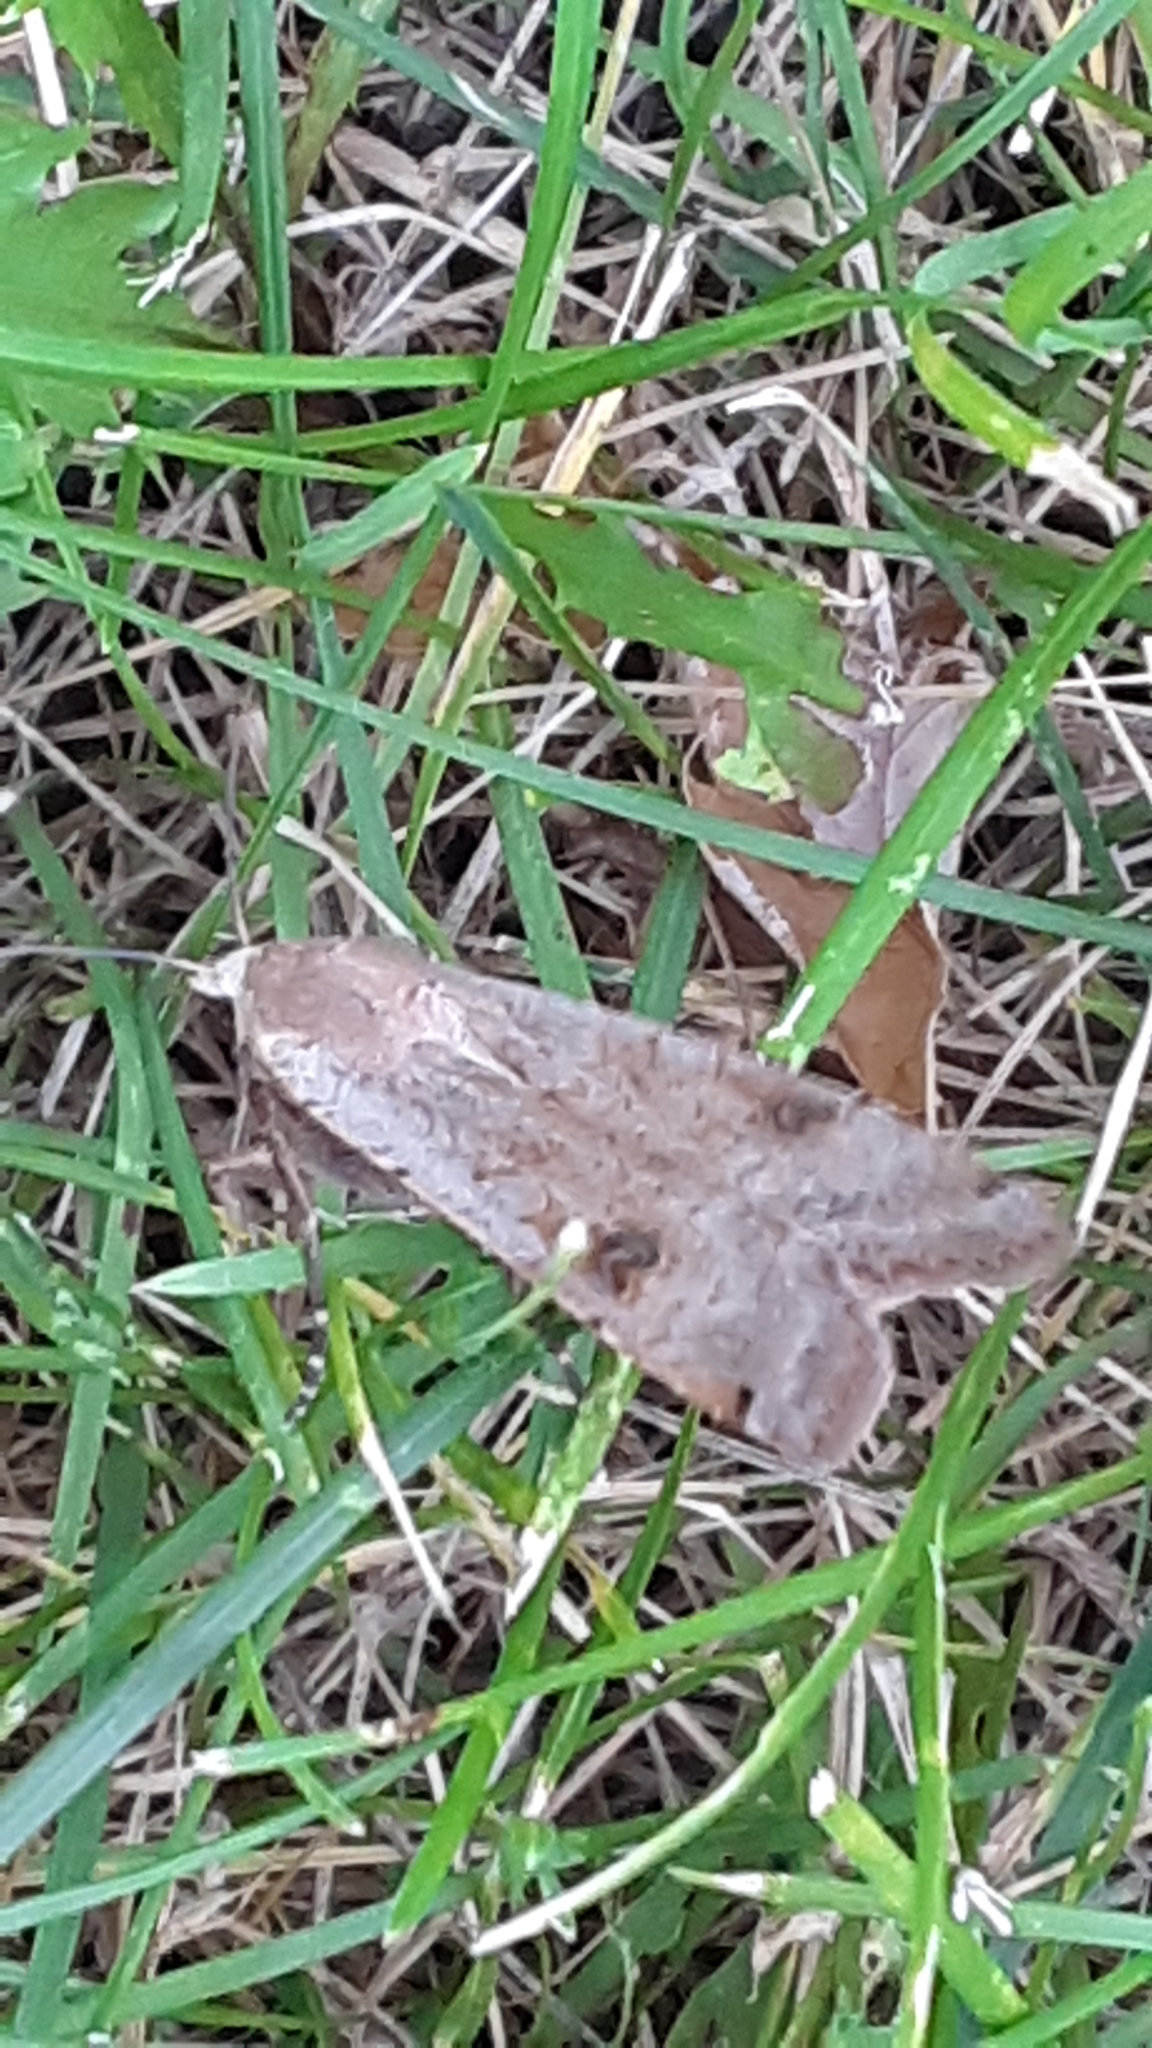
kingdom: Animalia
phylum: Arthropoda
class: Insecta
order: Lepidoptera
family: Noctuidae
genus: Noctua
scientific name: Noctua pronuba
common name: Large yellow underwing
